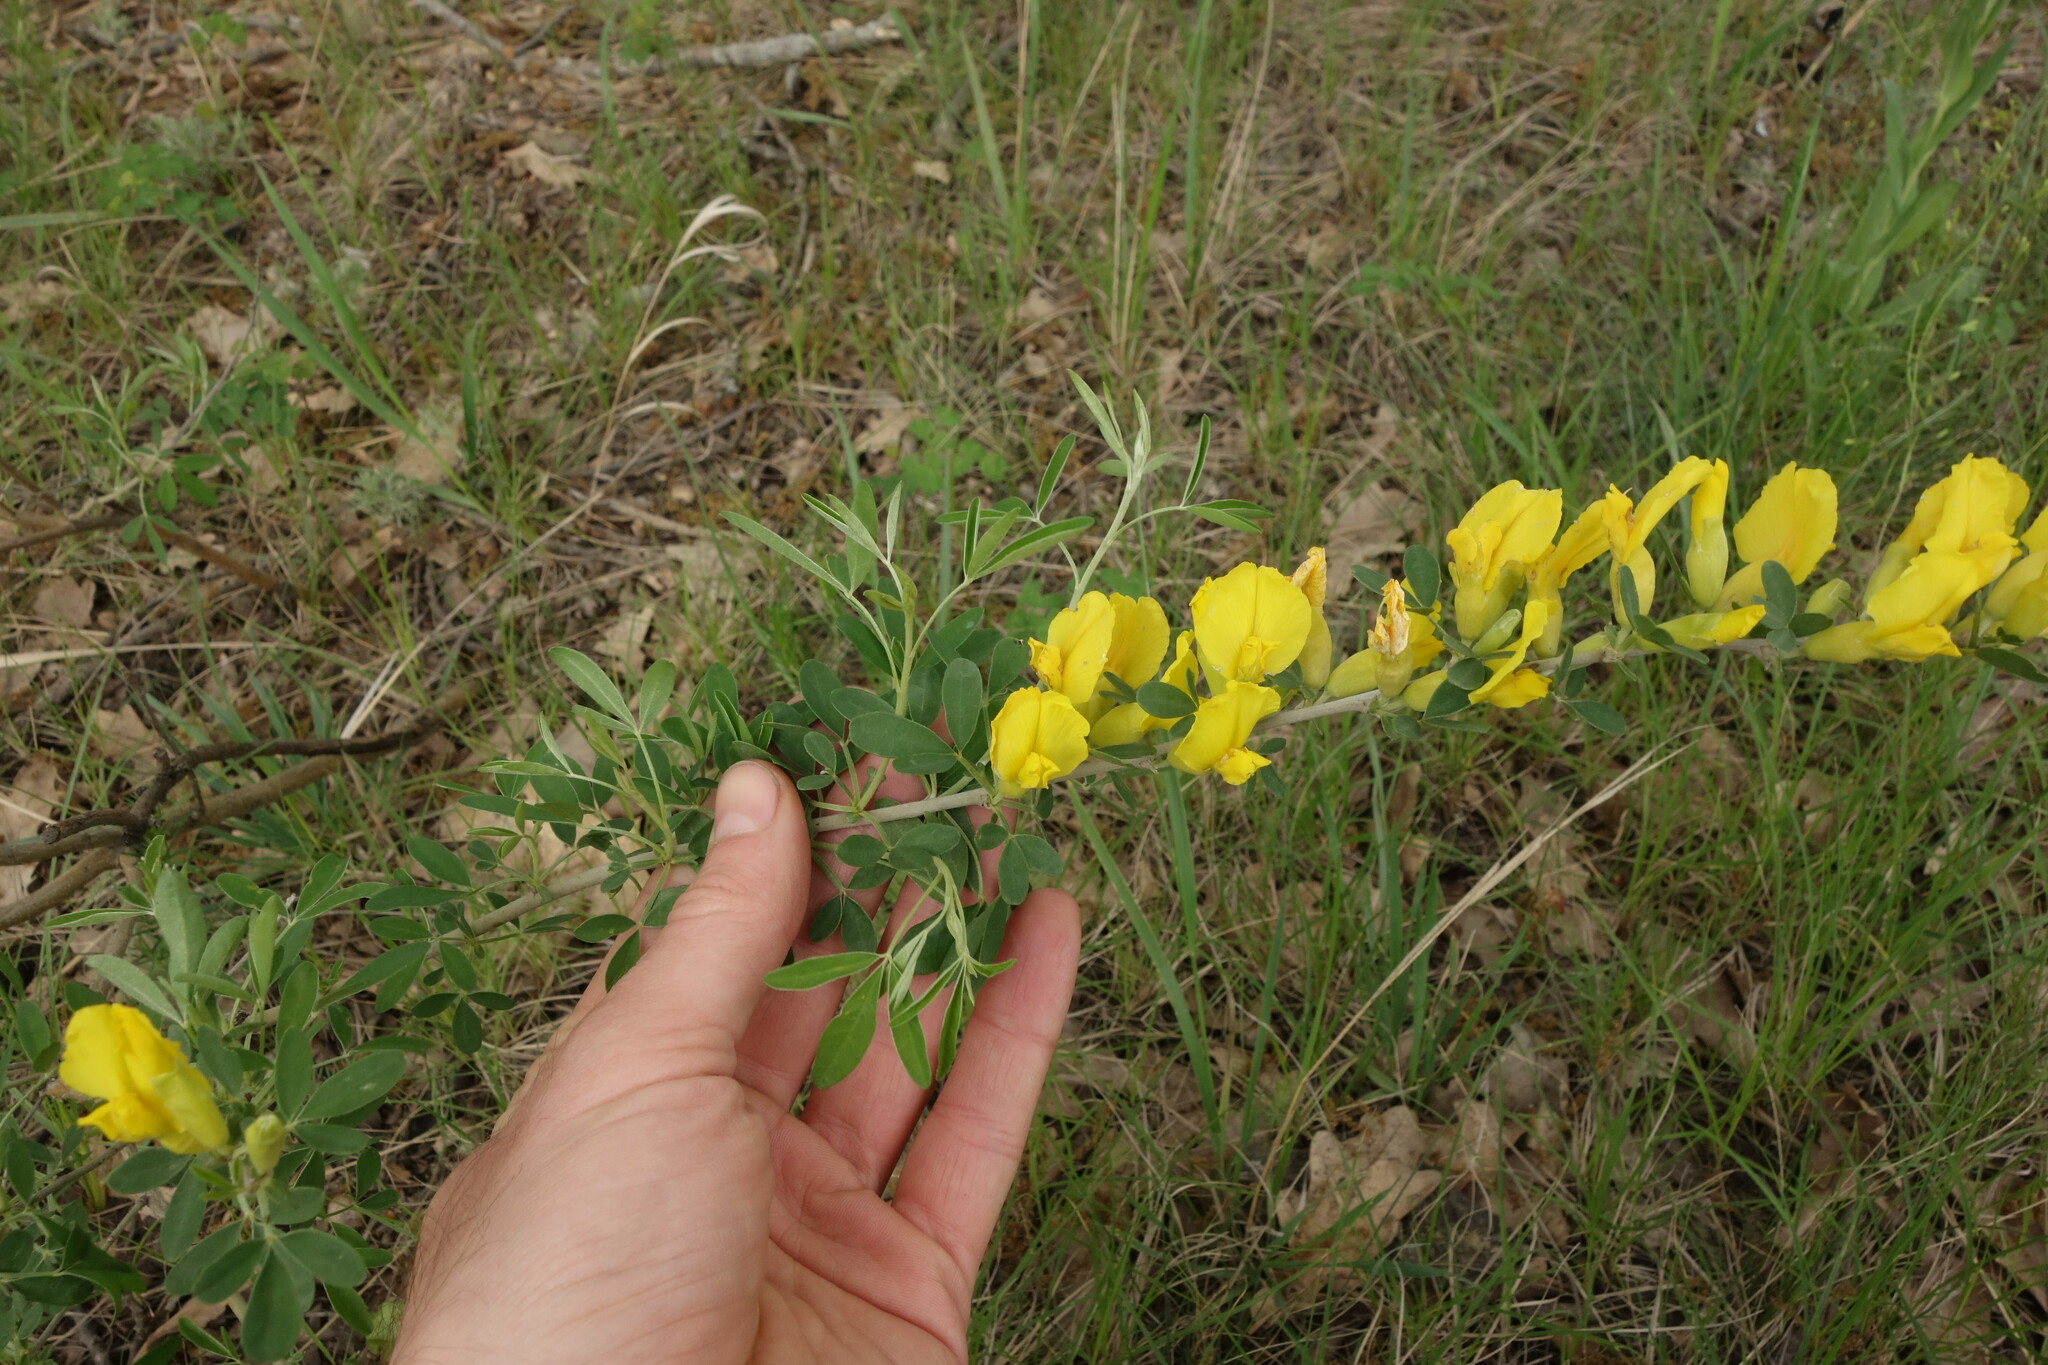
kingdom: Plantae
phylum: Tracheophyta
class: Magnoliopsida
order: Fabales
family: Fabaceae
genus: Chamaecytisus
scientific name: Chamaecytisus ruthenicus
